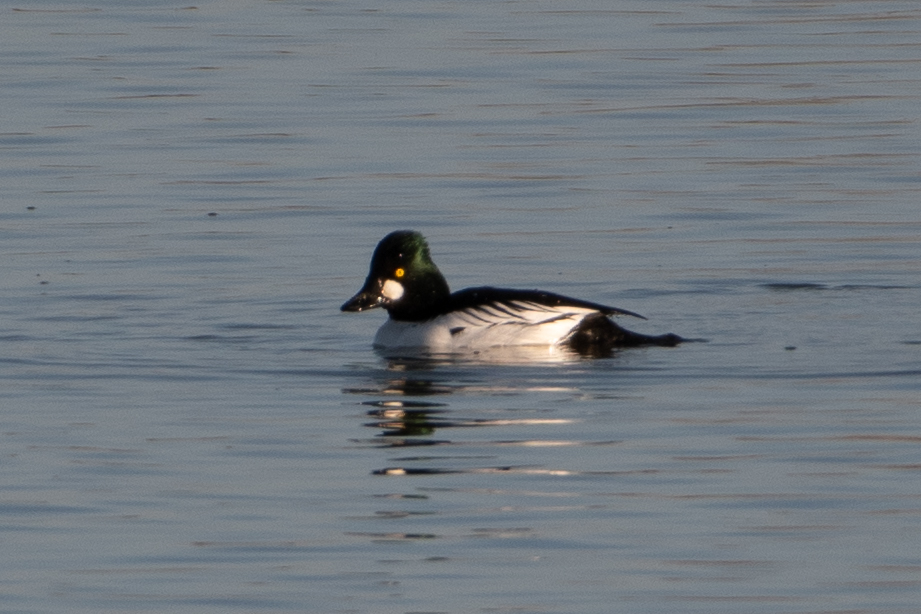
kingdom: Animalia
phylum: Chordata
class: Aves
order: Anseriformes
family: Anatidae
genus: Bucephala
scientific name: Bucephala clangula
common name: Common goldeneye
